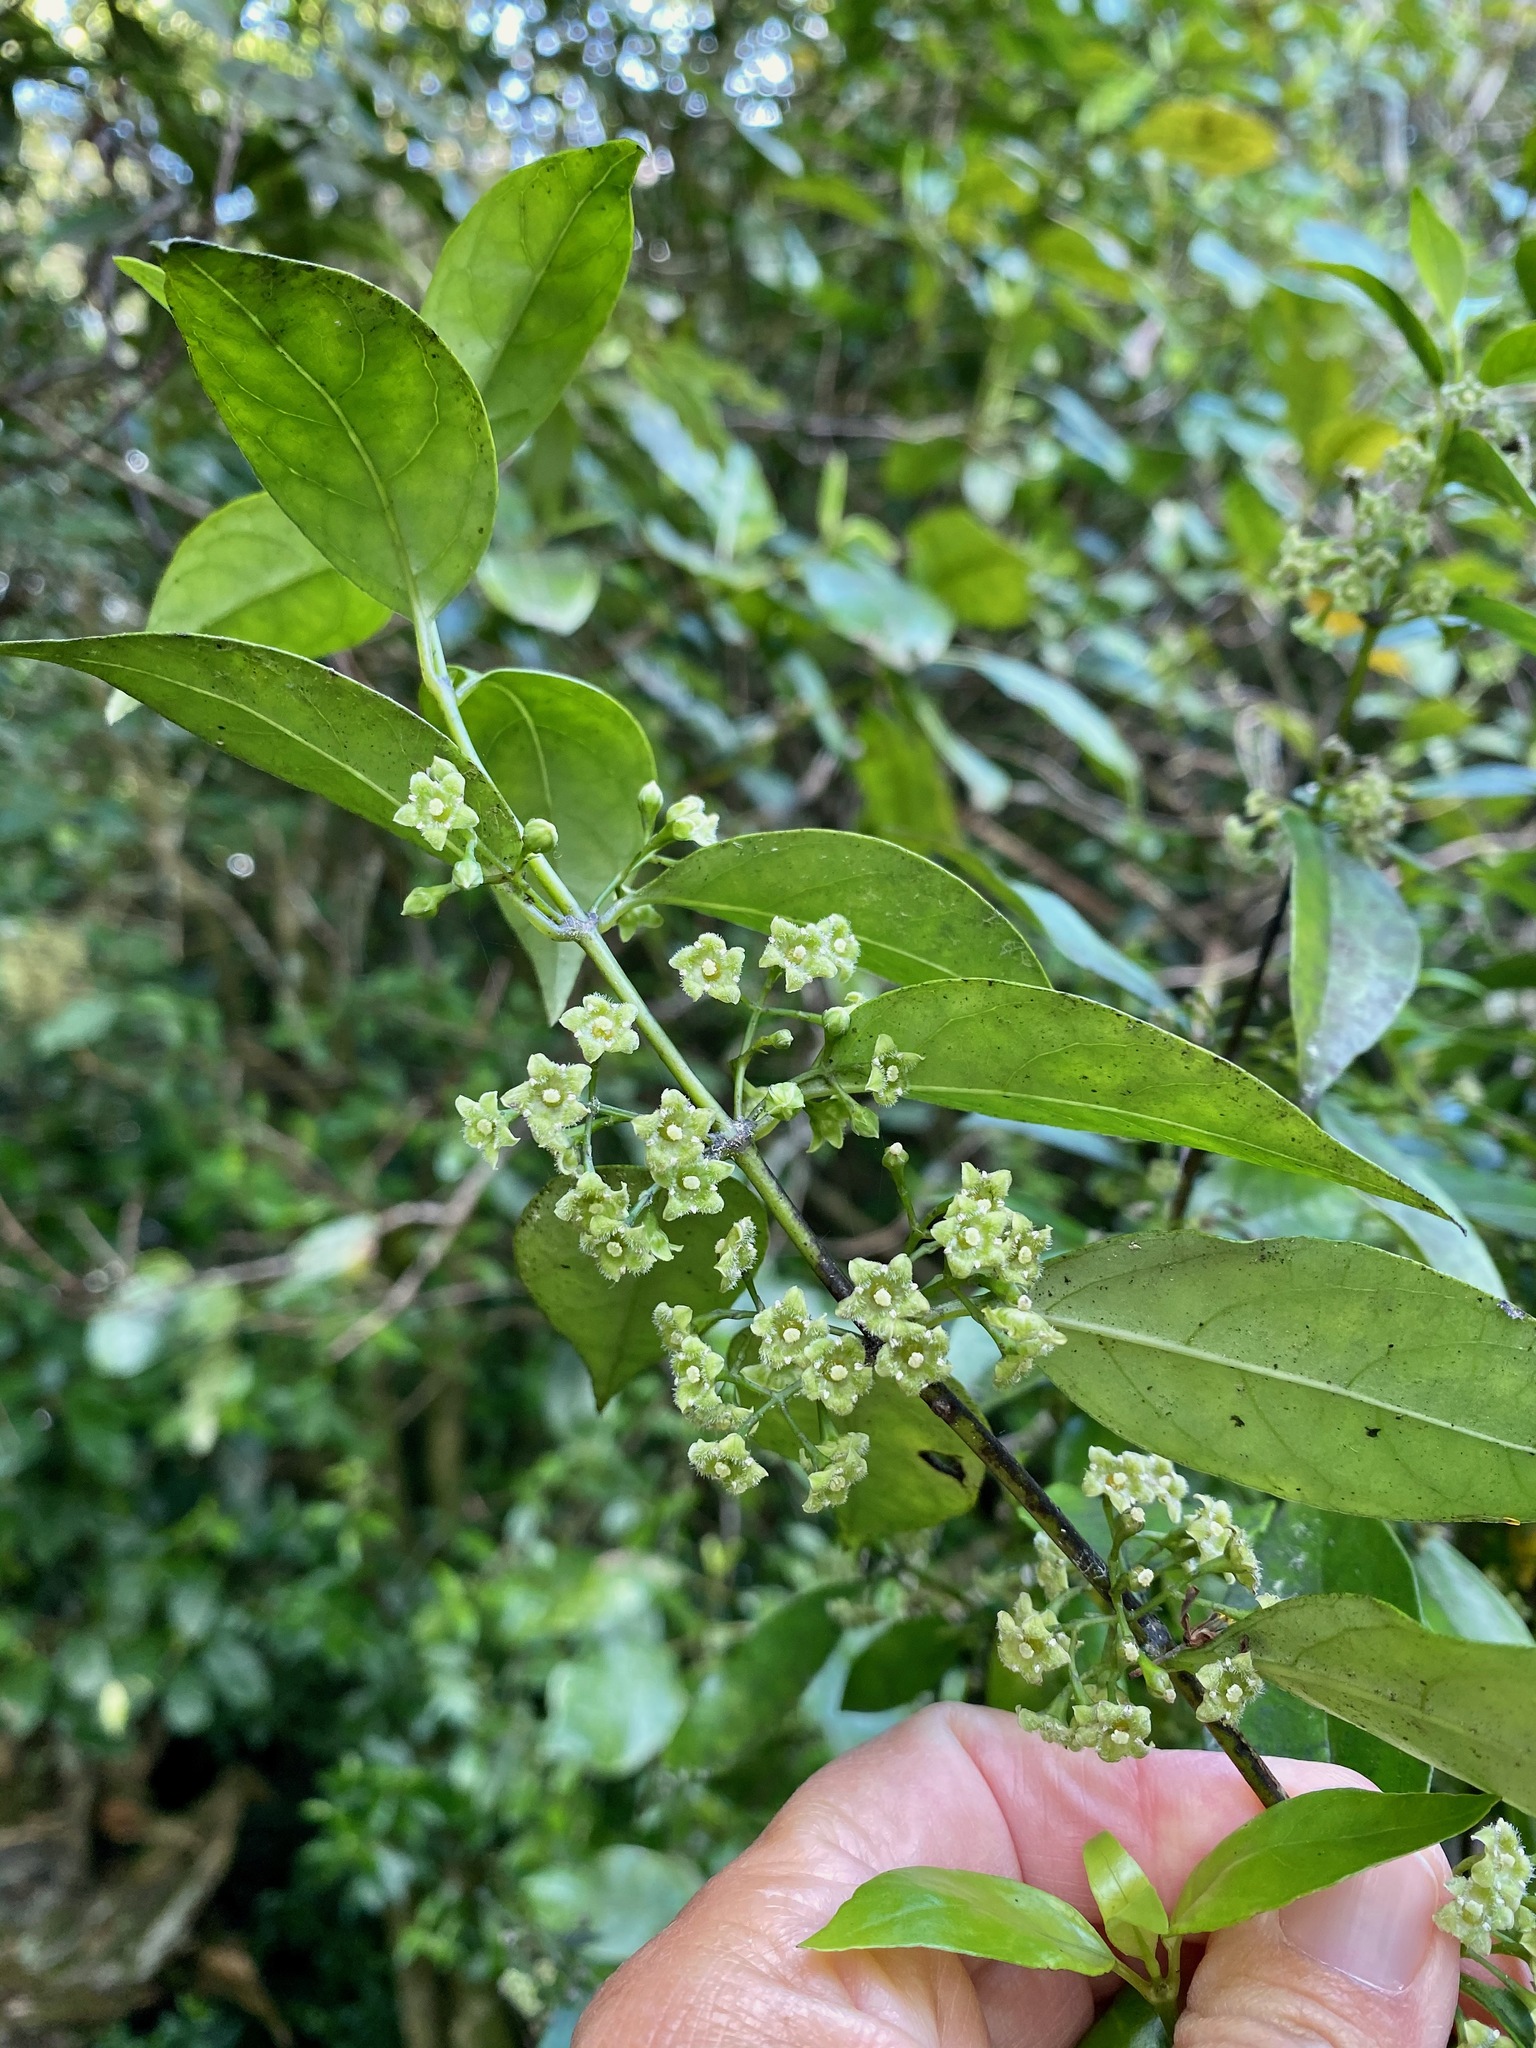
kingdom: Plantae
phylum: Tracheophyta
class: Magnoliopsida
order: Gentianales
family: Loganiaceae
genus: Geniostoma
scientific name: Geniostoma ligustrifolium
